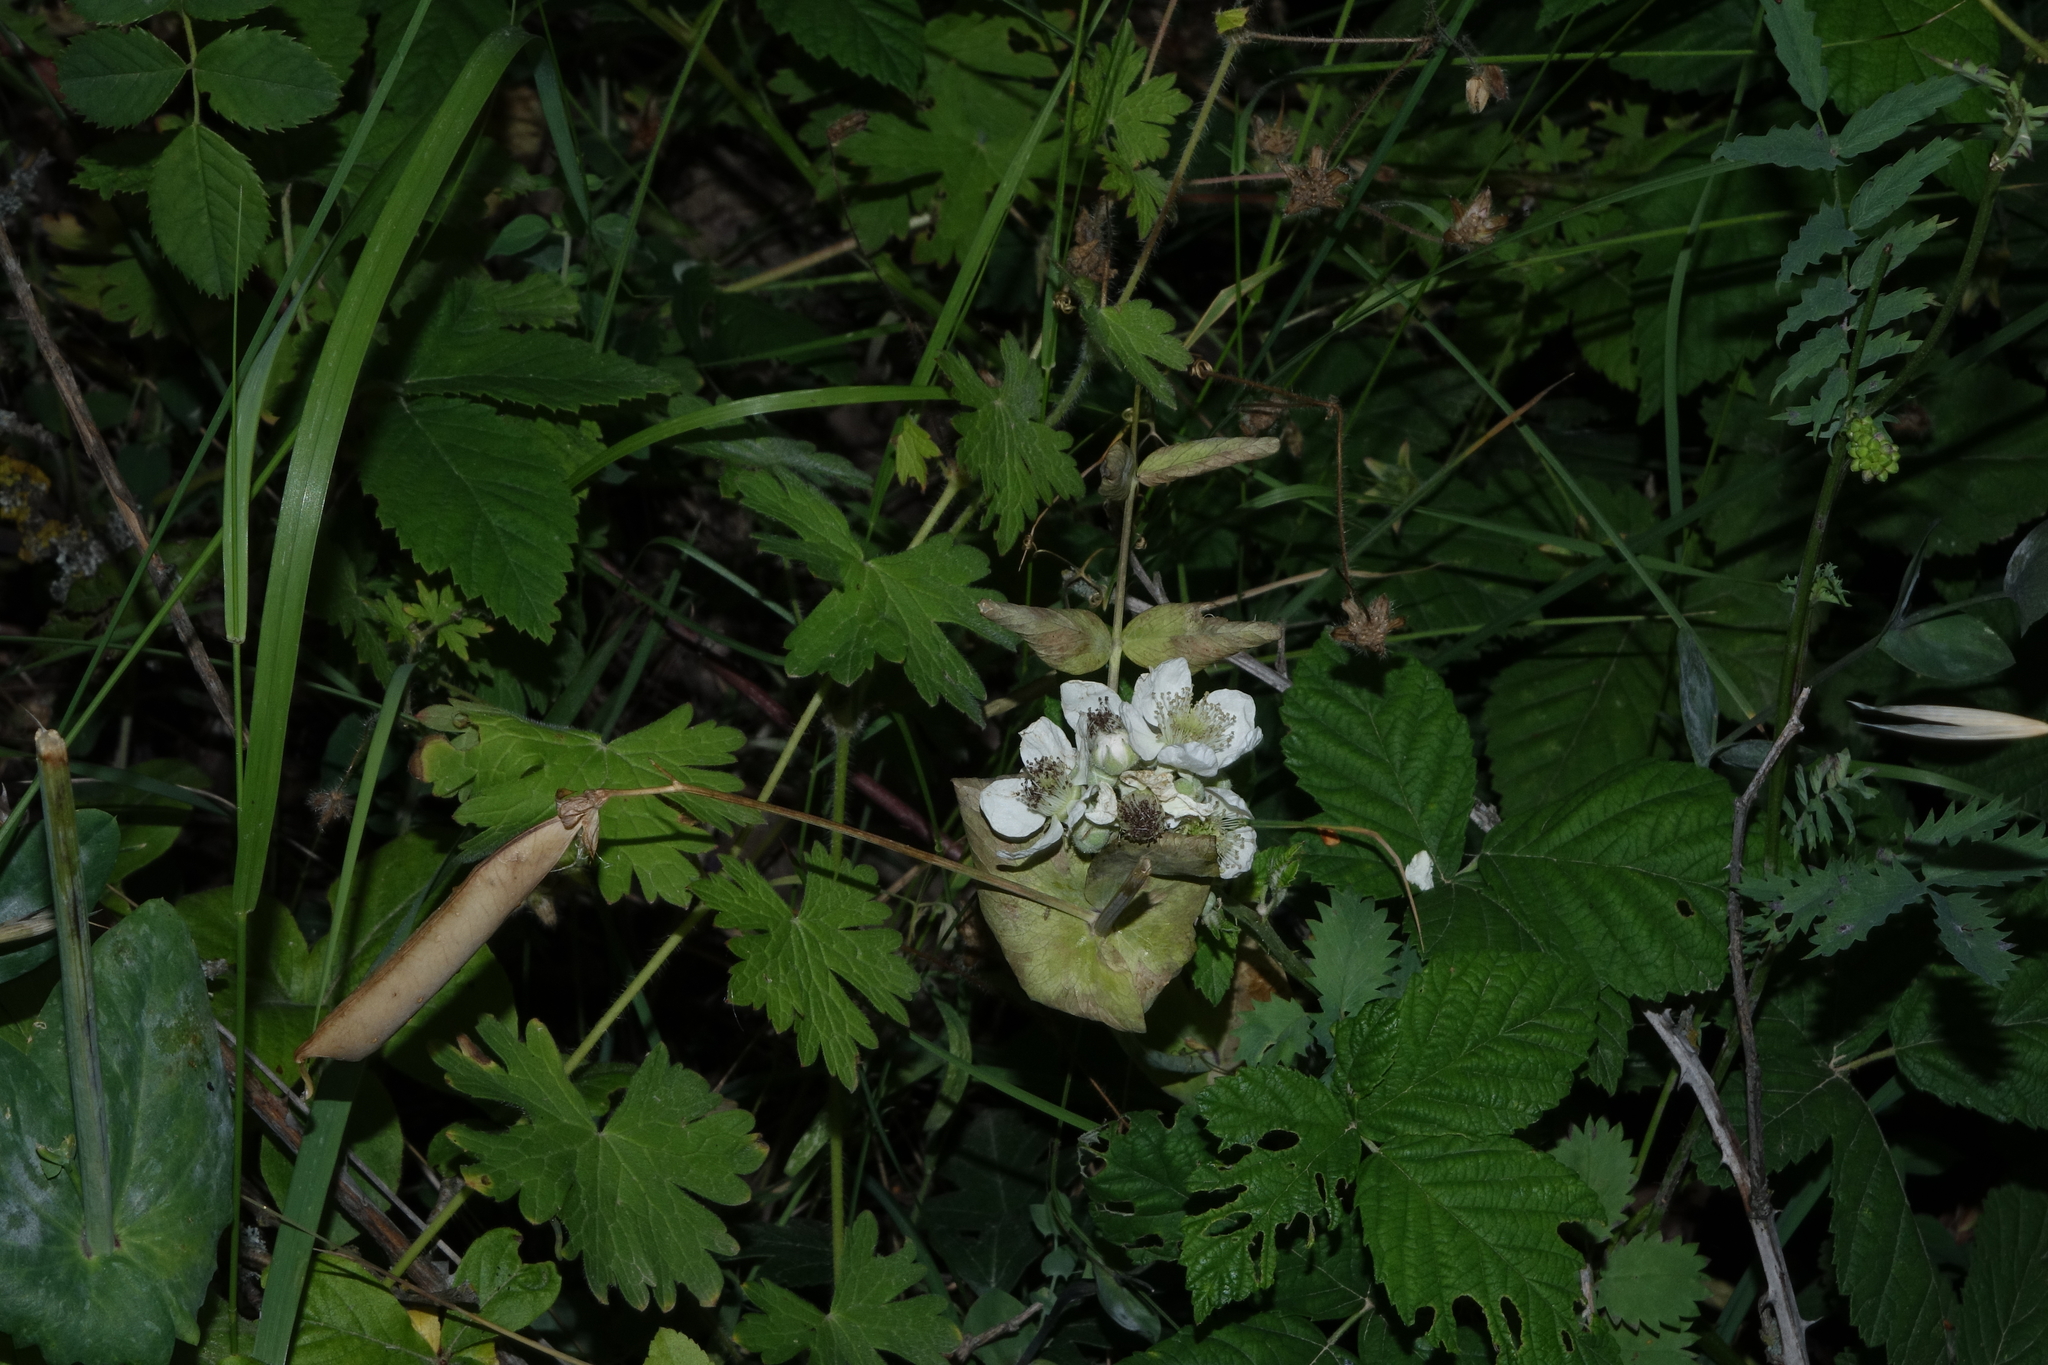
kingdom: Plantae
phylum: Tracheophyta
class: Magnoliopsida
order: Fabales
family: Fabaceae
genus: Lathyrus
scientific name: Lathyrus oleraceus
